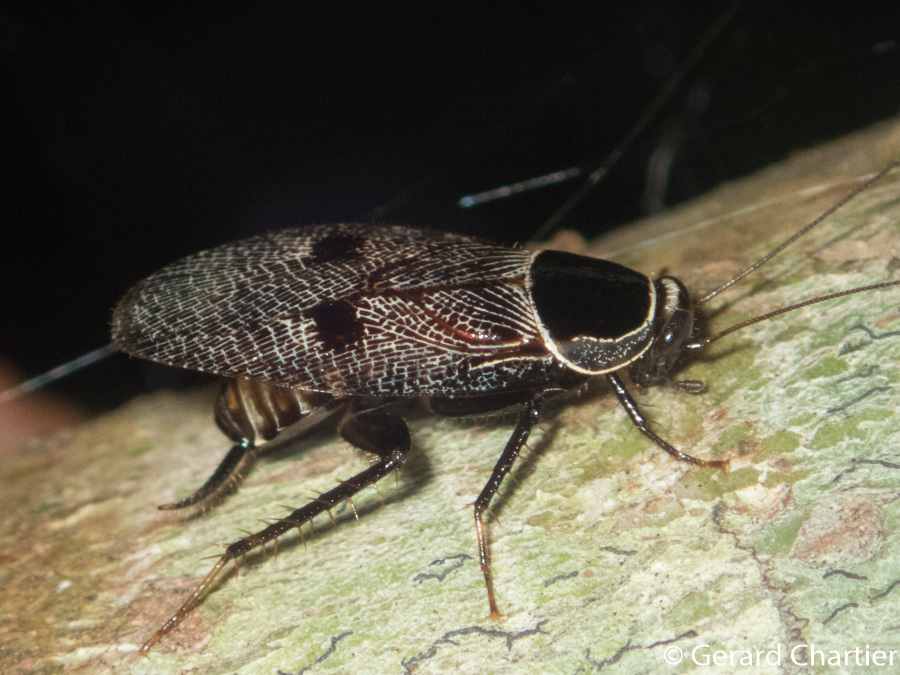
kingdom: Animalia
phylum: Arthropoda
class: Insecta
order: Blattodea
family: Ectobiidae
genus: Allacta
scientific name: Allacta bimaculata
